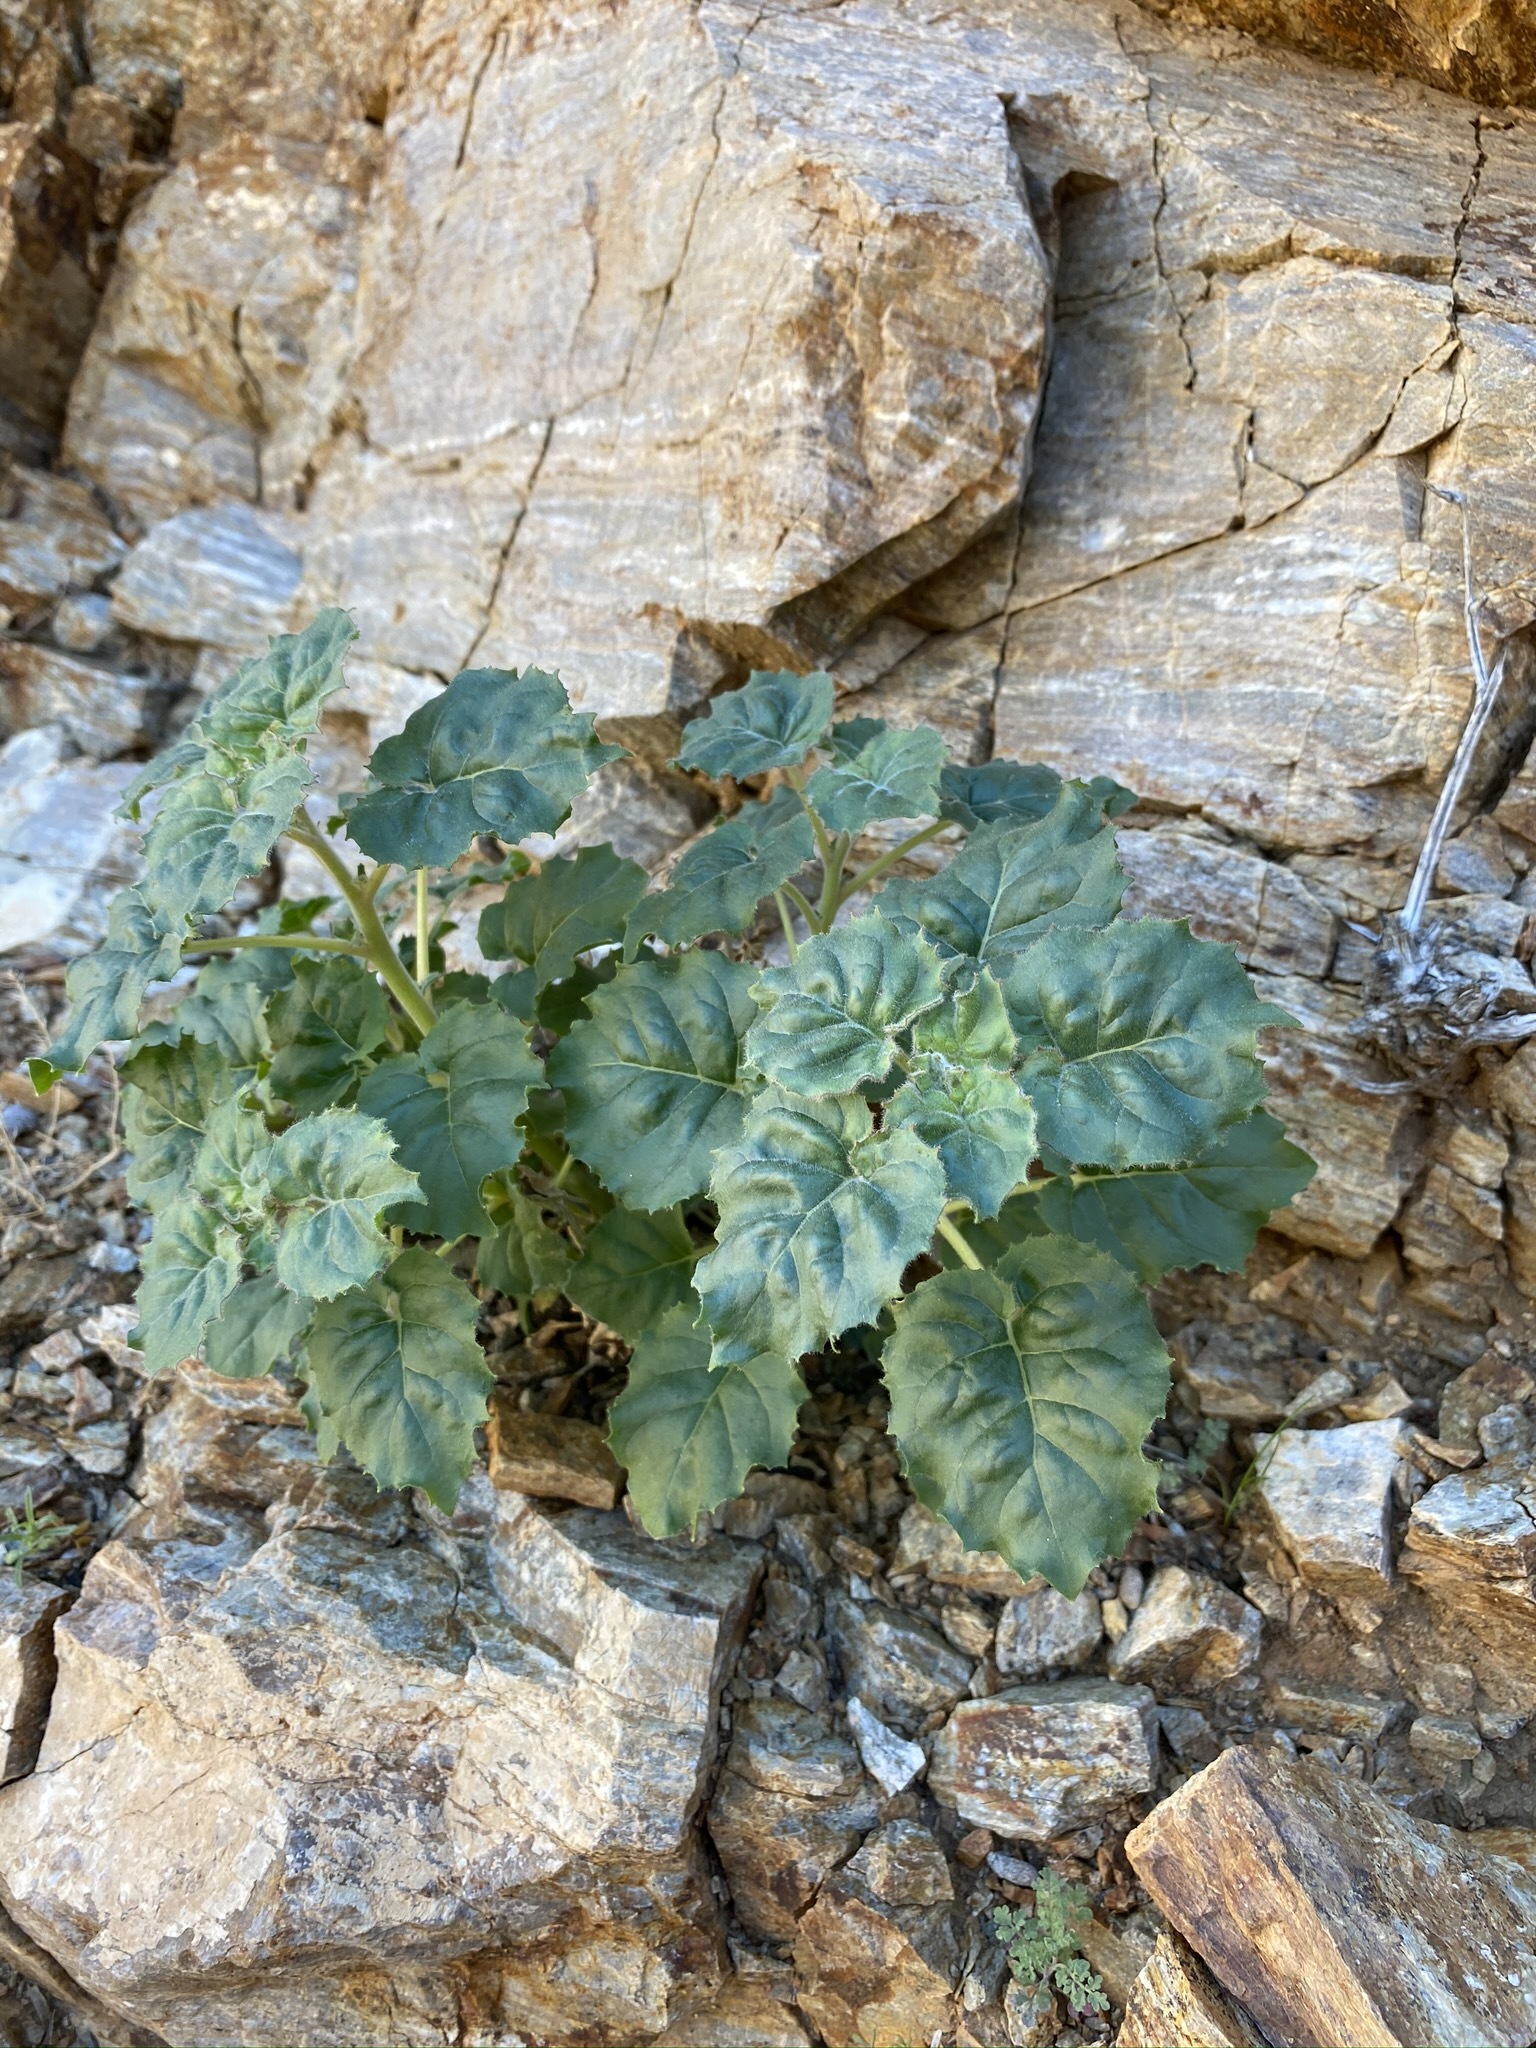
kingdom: Plantae
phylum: Tracheophyta
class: Magnoliopsida
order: Myrtales
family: Onagraceae
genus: Chylismia
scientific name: Chylismia cardiophylla
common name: Heartleaf suncup
